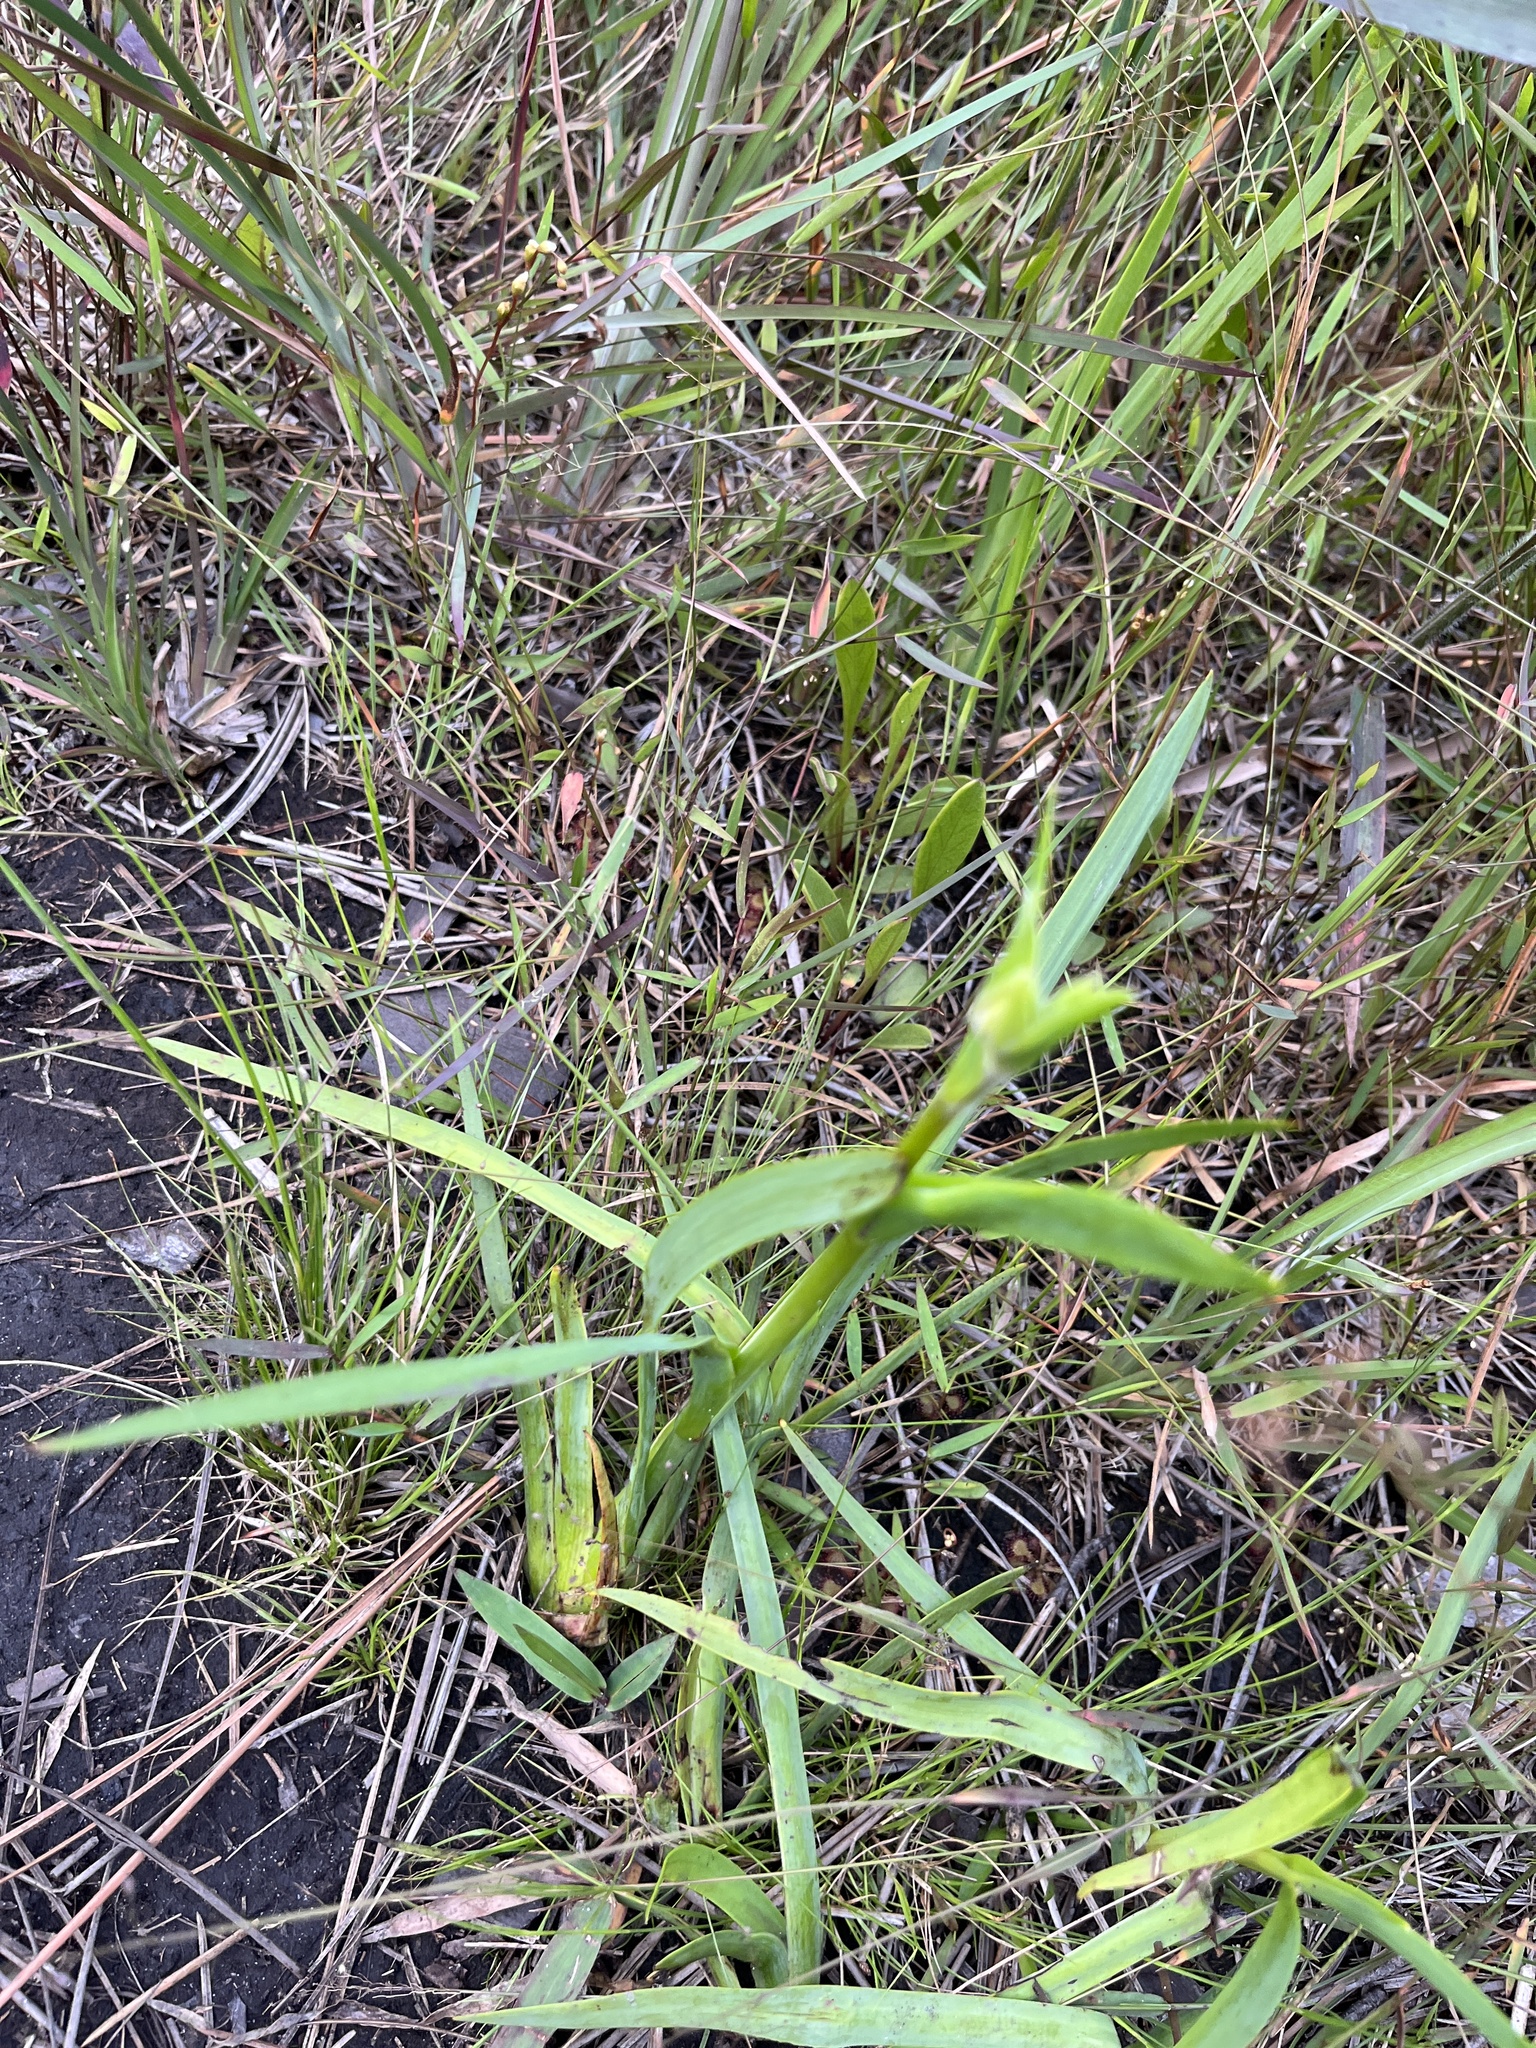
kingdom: Plantae
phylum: Tracheophyta
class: Liliopsida
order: Commelinales
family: Haemodoraceae
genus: Lachnanthes
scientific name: Lachnanthes caroliana
